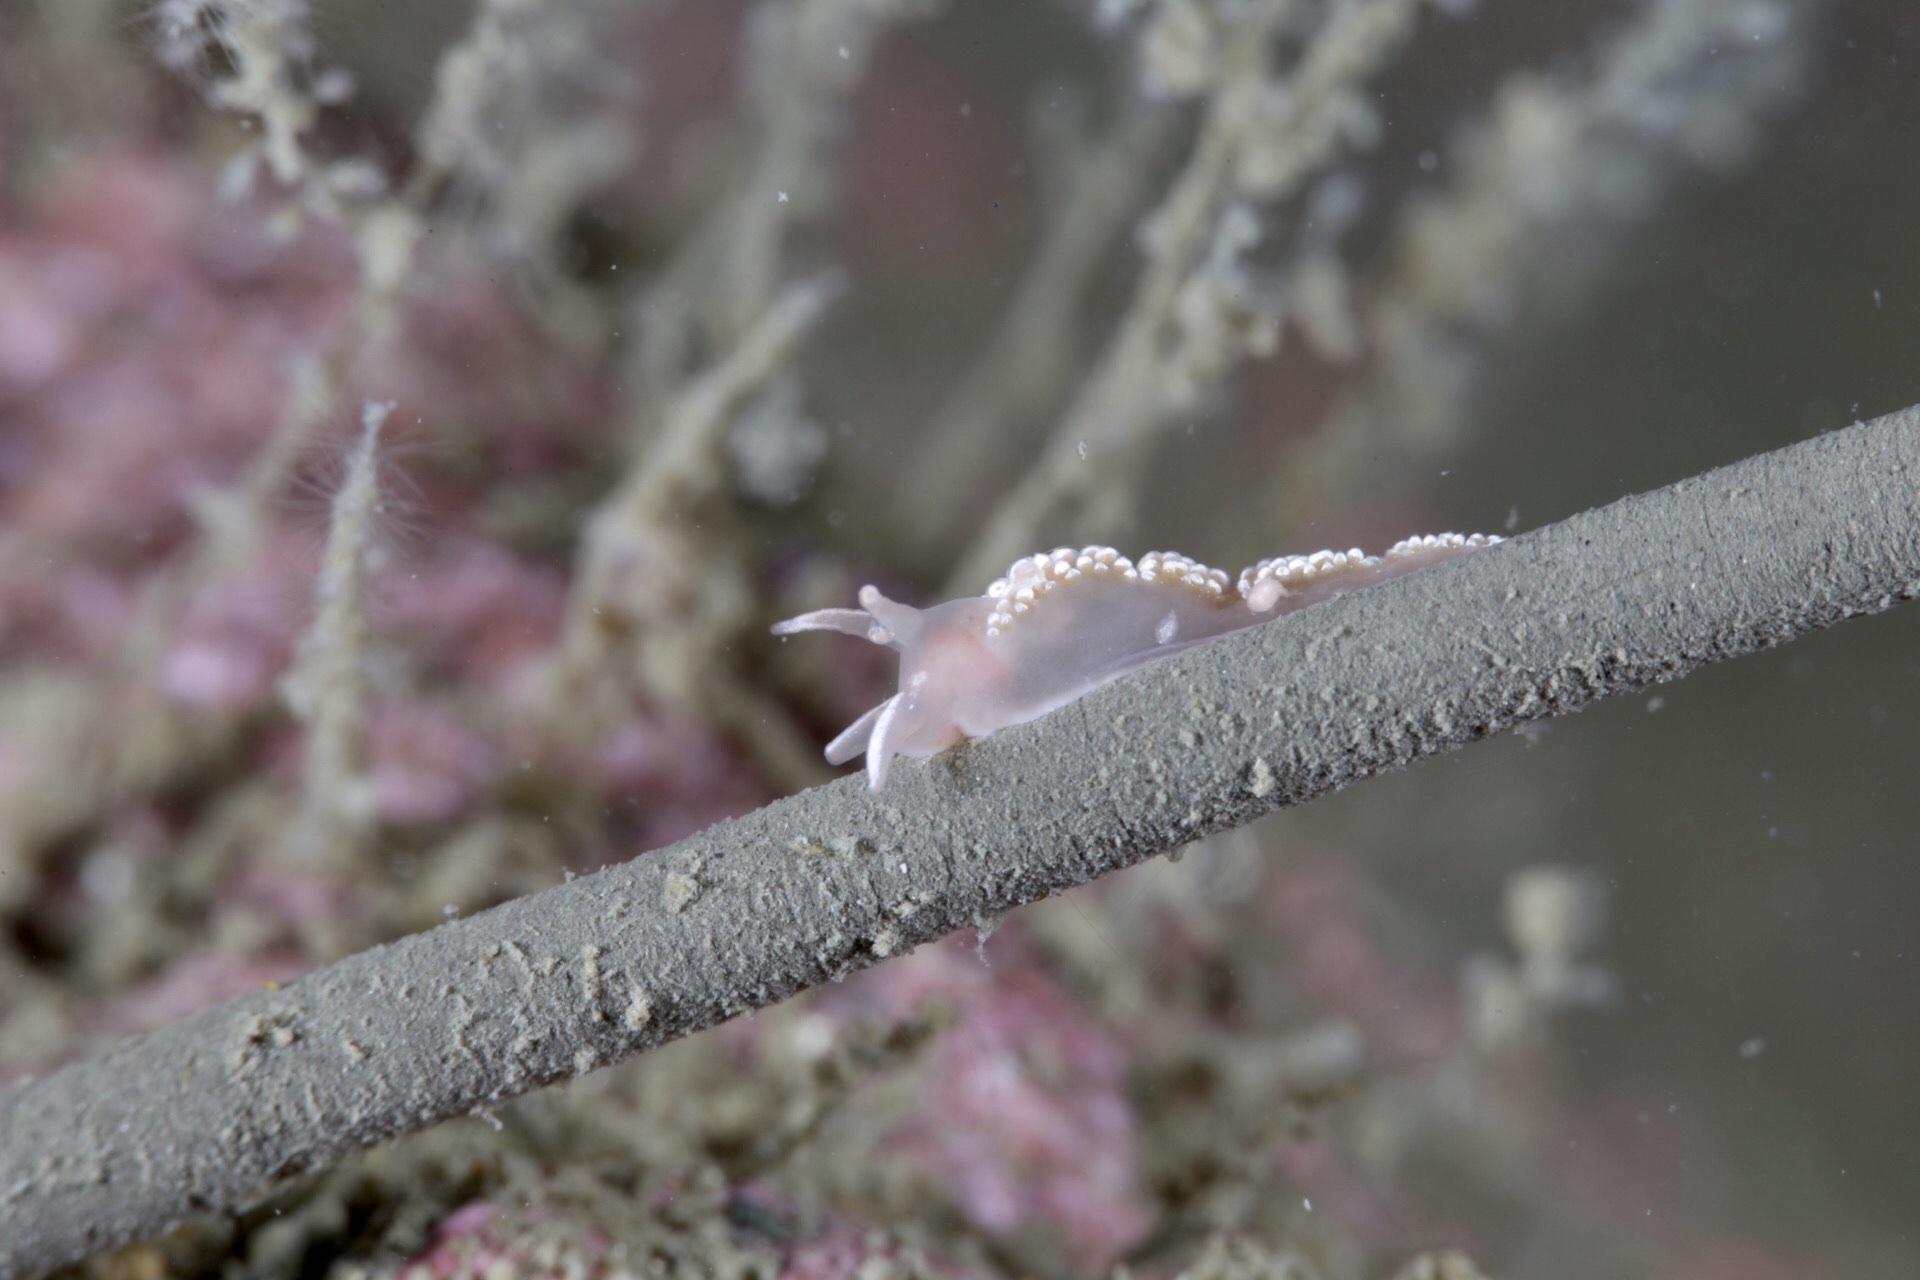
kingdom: Animalia
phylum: Mollusca
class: Gastropoda
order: Nudibranchia
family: Coryphellidae
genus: Coryphella
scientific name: Coryphella verrucosa
